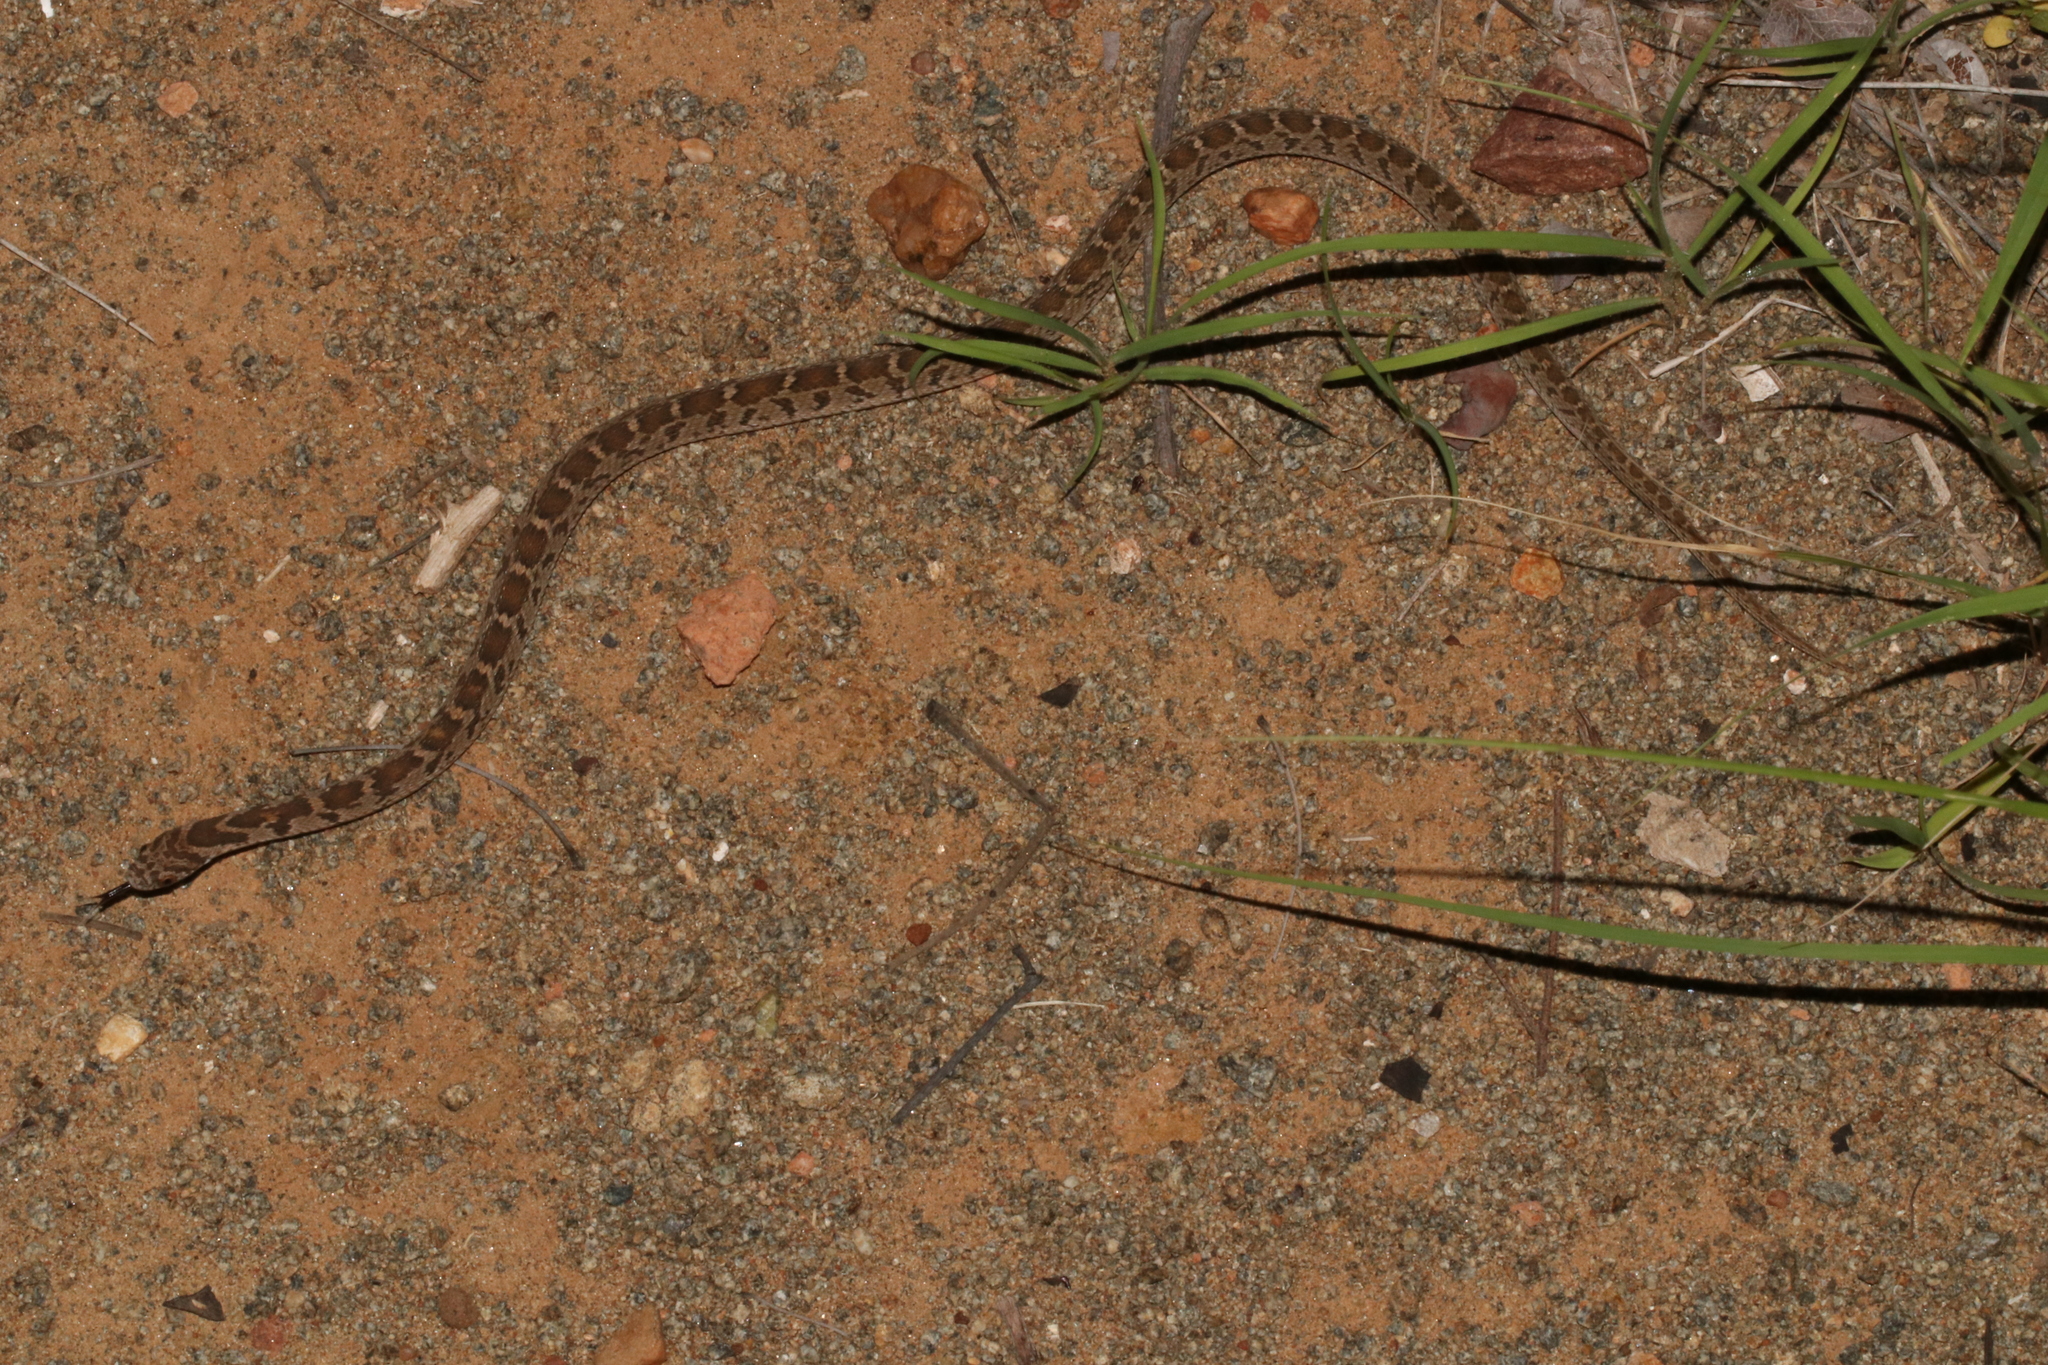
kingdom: Animalia
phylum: Chordata
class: Squamata
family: Colubridae
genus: Dasypeltis
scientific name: Dasypeltis scabra
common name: Common egg eater
